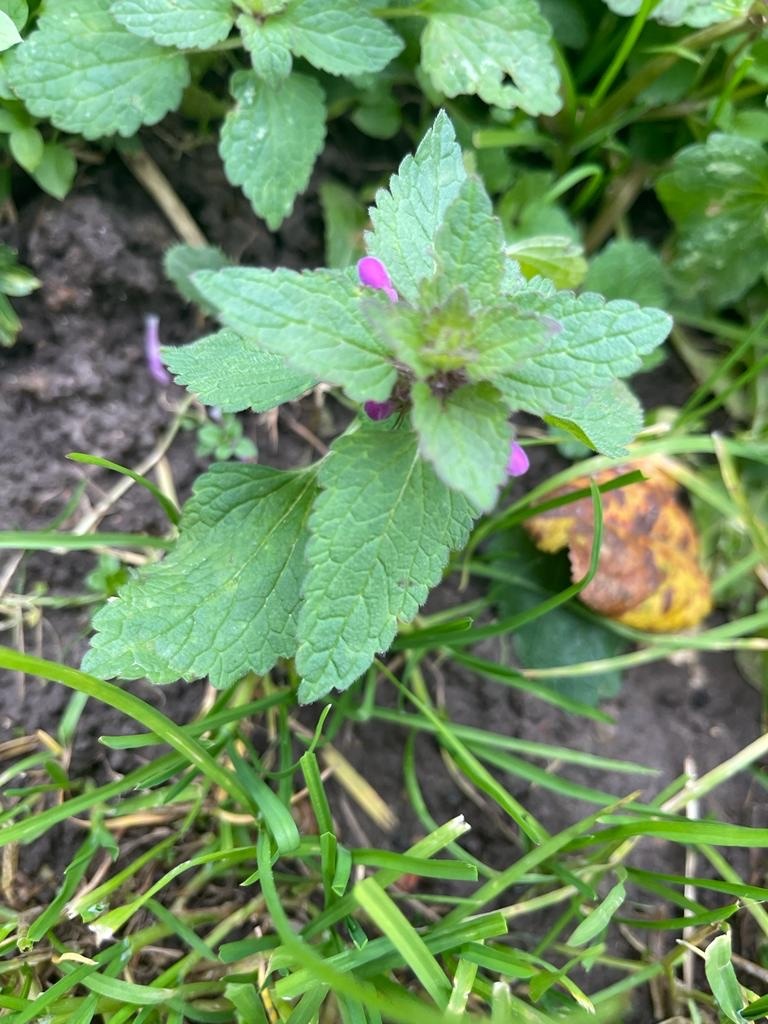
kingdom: Plantae
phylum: Tracheophyta
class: Magnoliopsida
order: Lamiales
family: Lamiaceae
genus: Lamium
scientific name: Lamium purpureum
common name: Red dead-nettle
